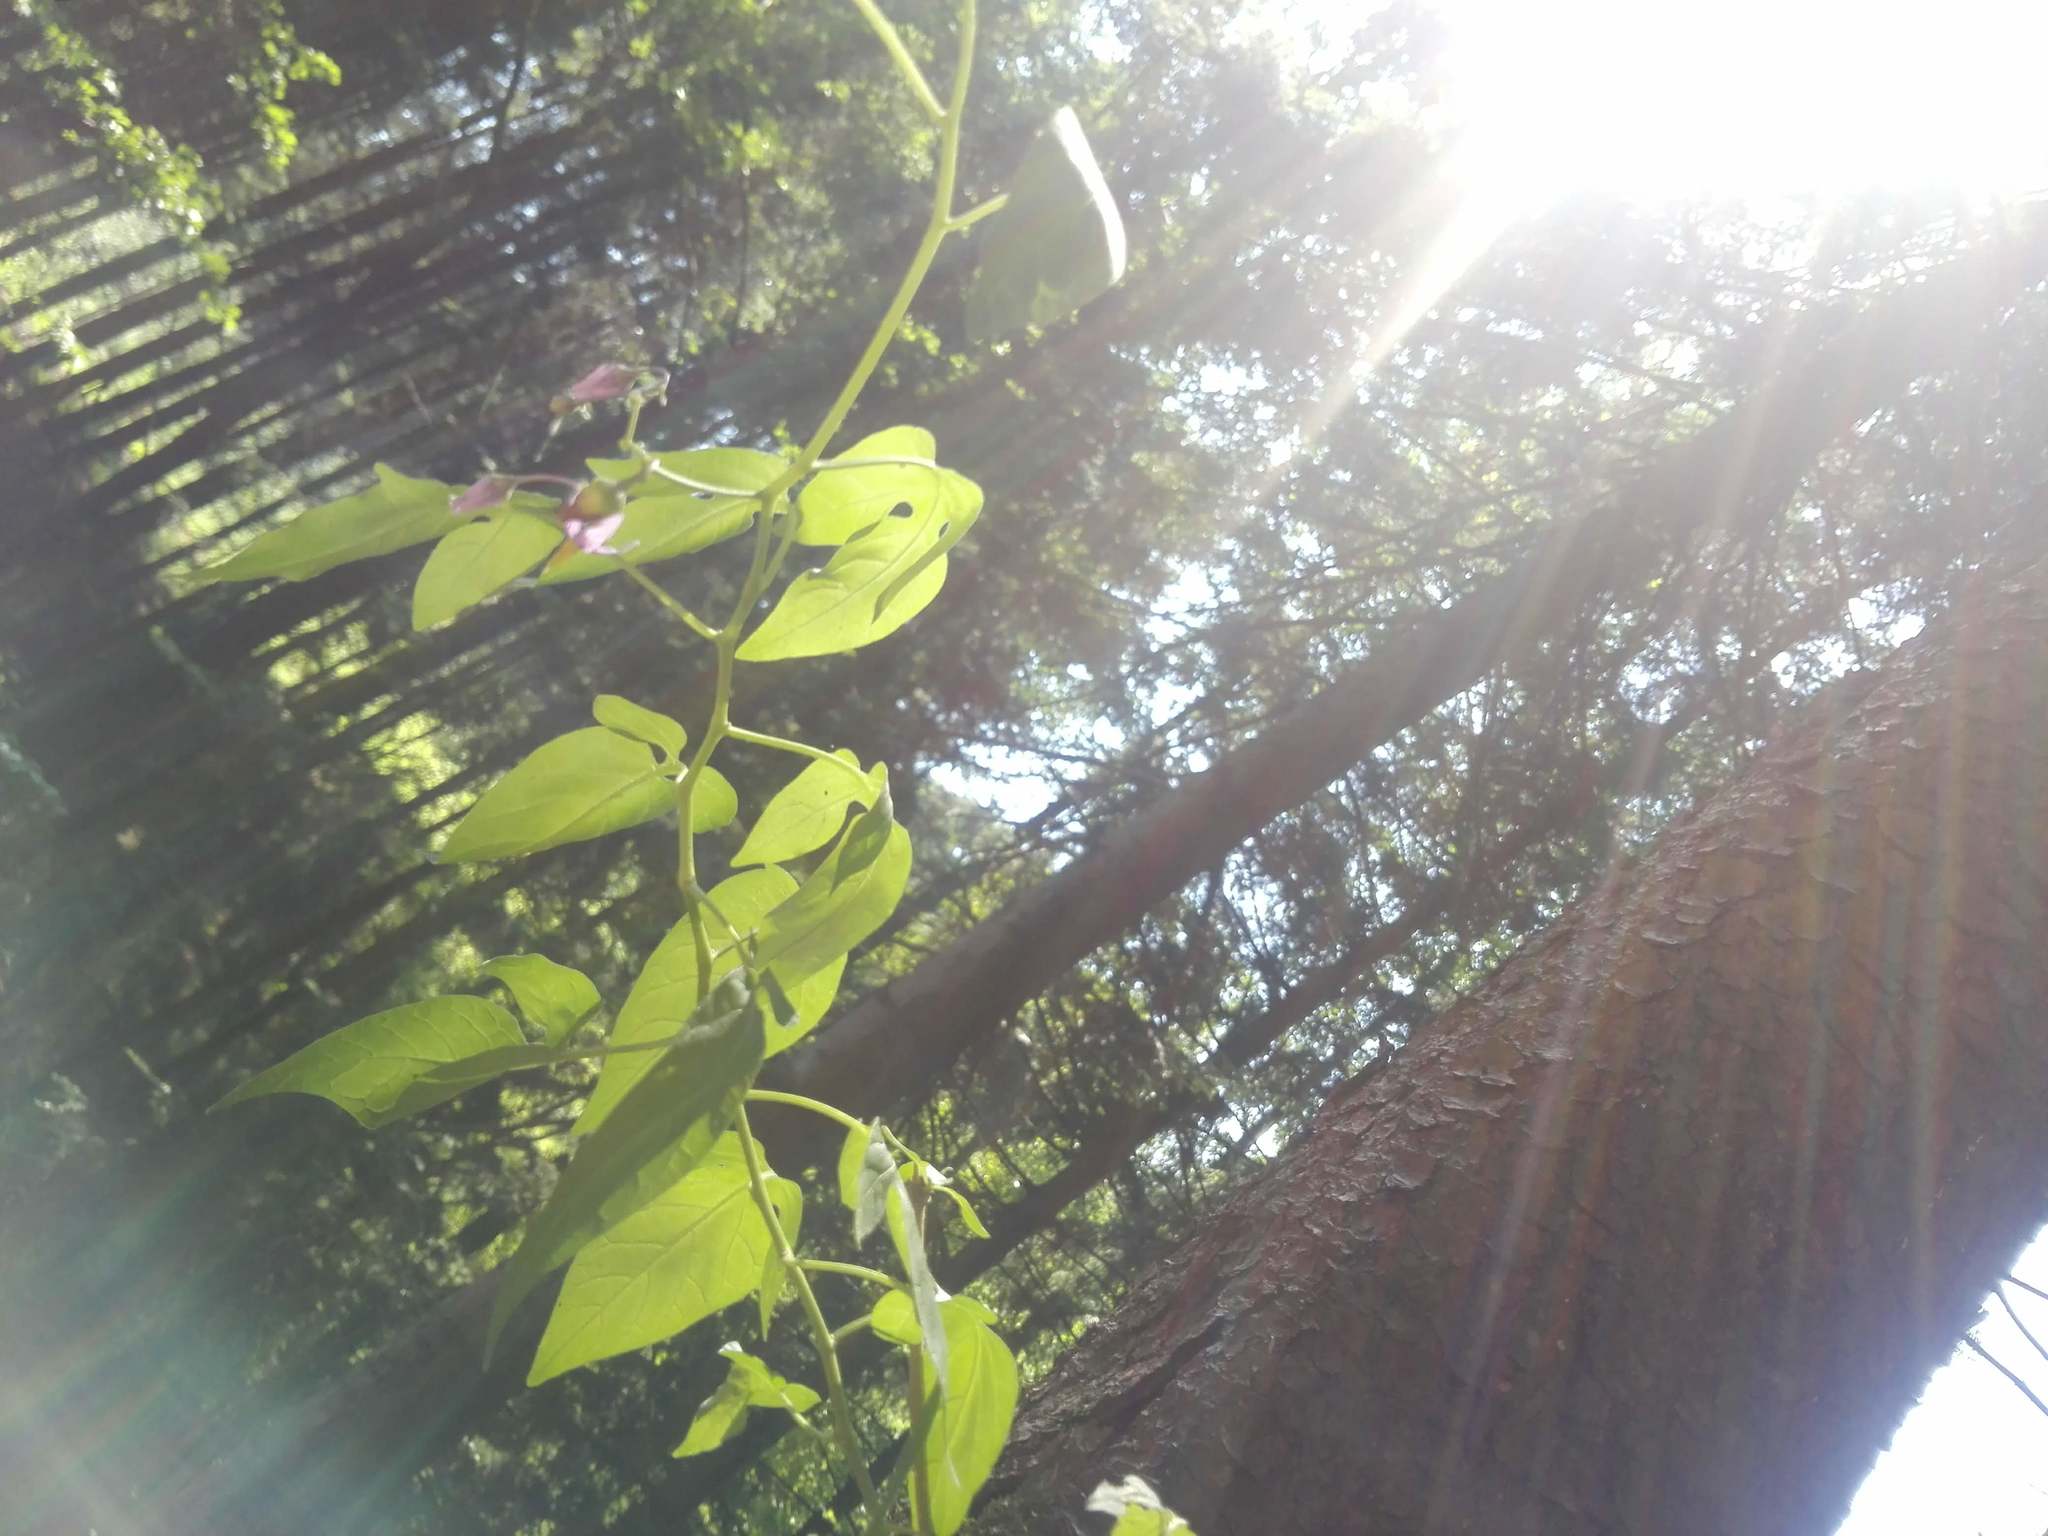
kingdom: Plantae
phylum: Tracheophyta
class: Magnoliopsida
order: Solanales
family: Solanaceae
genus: Solanum
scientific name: Solanum dulcamara
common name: Climbing nightshade
